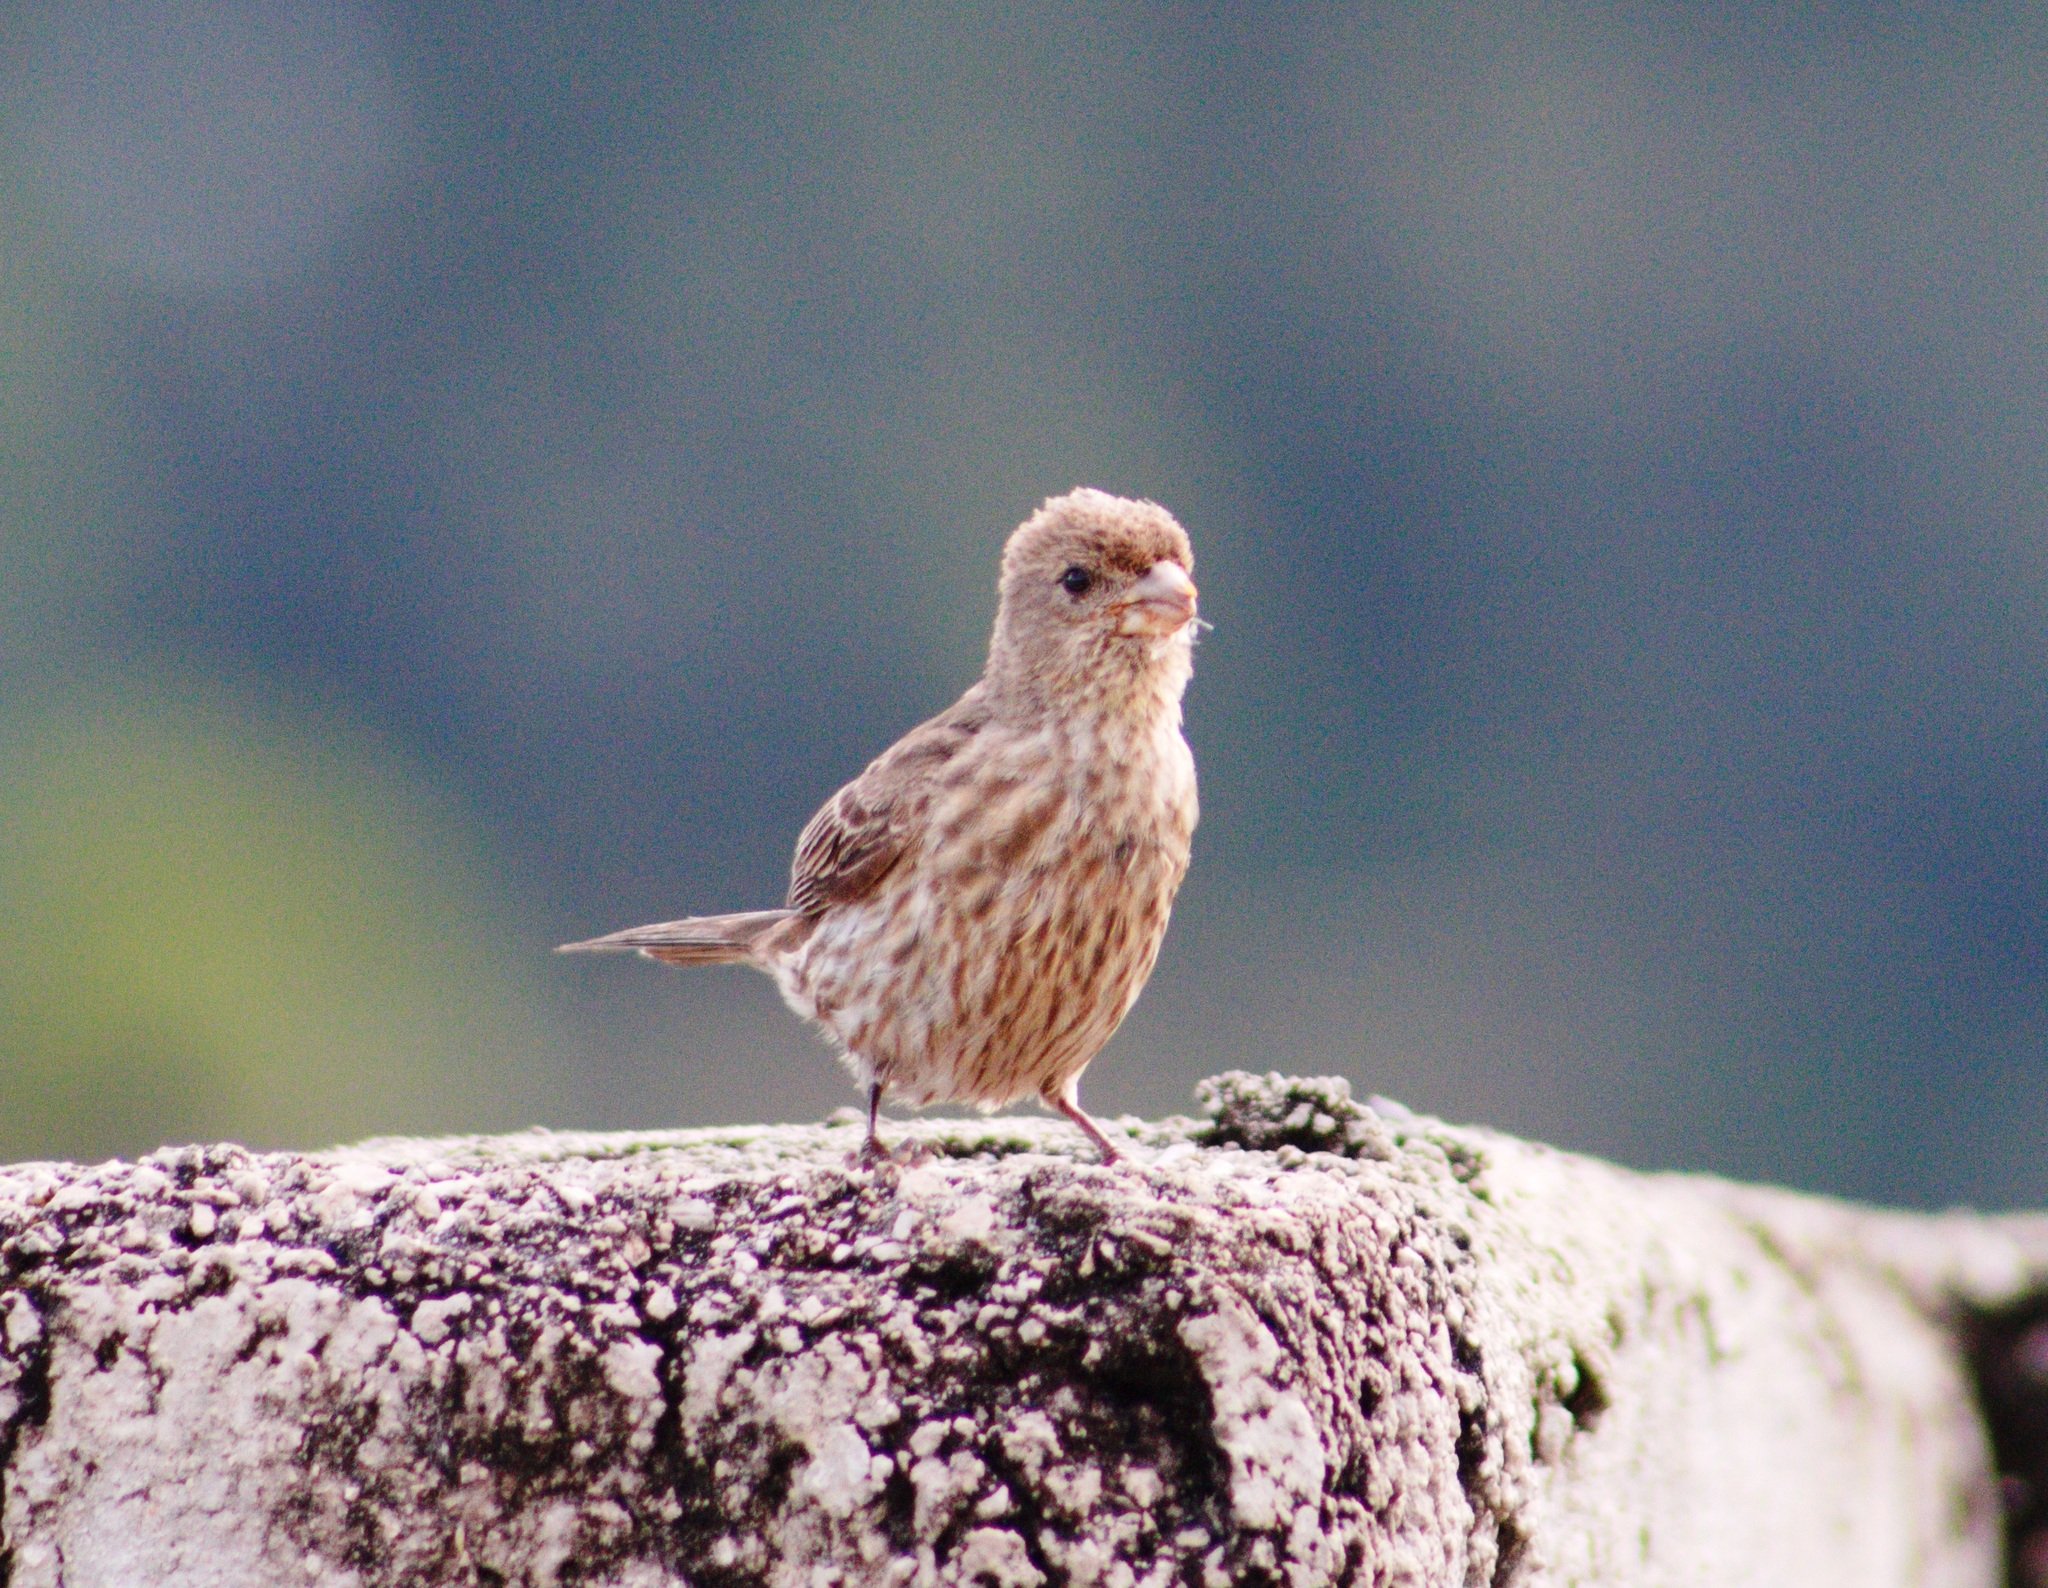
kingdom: Animalia
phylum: Chordata
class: Aves
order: Passeriformes
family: Fringillidae
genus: Haemorhous
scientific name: Haemorhous mexicanus
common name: House finch
